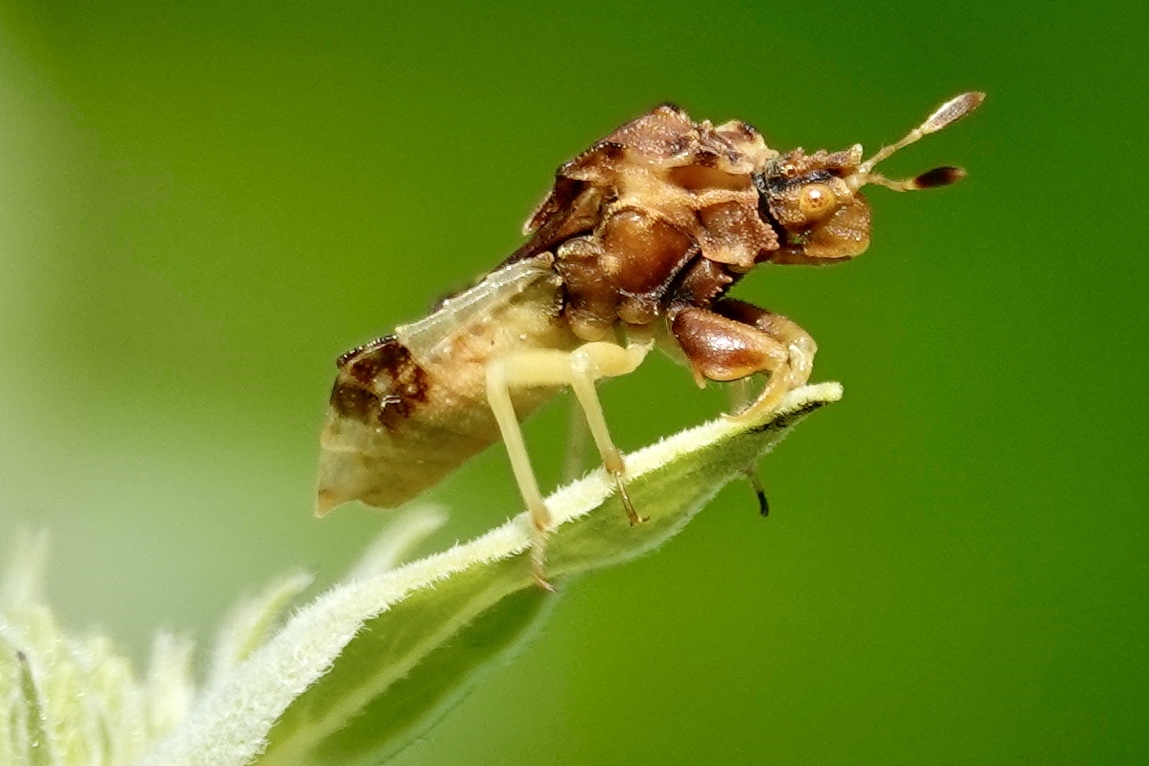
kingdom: Animalia
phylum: Arthropoda
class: Insecta
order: Hemiptera
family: Reduviidae
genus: Phymata
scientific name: Phymata fasciata
